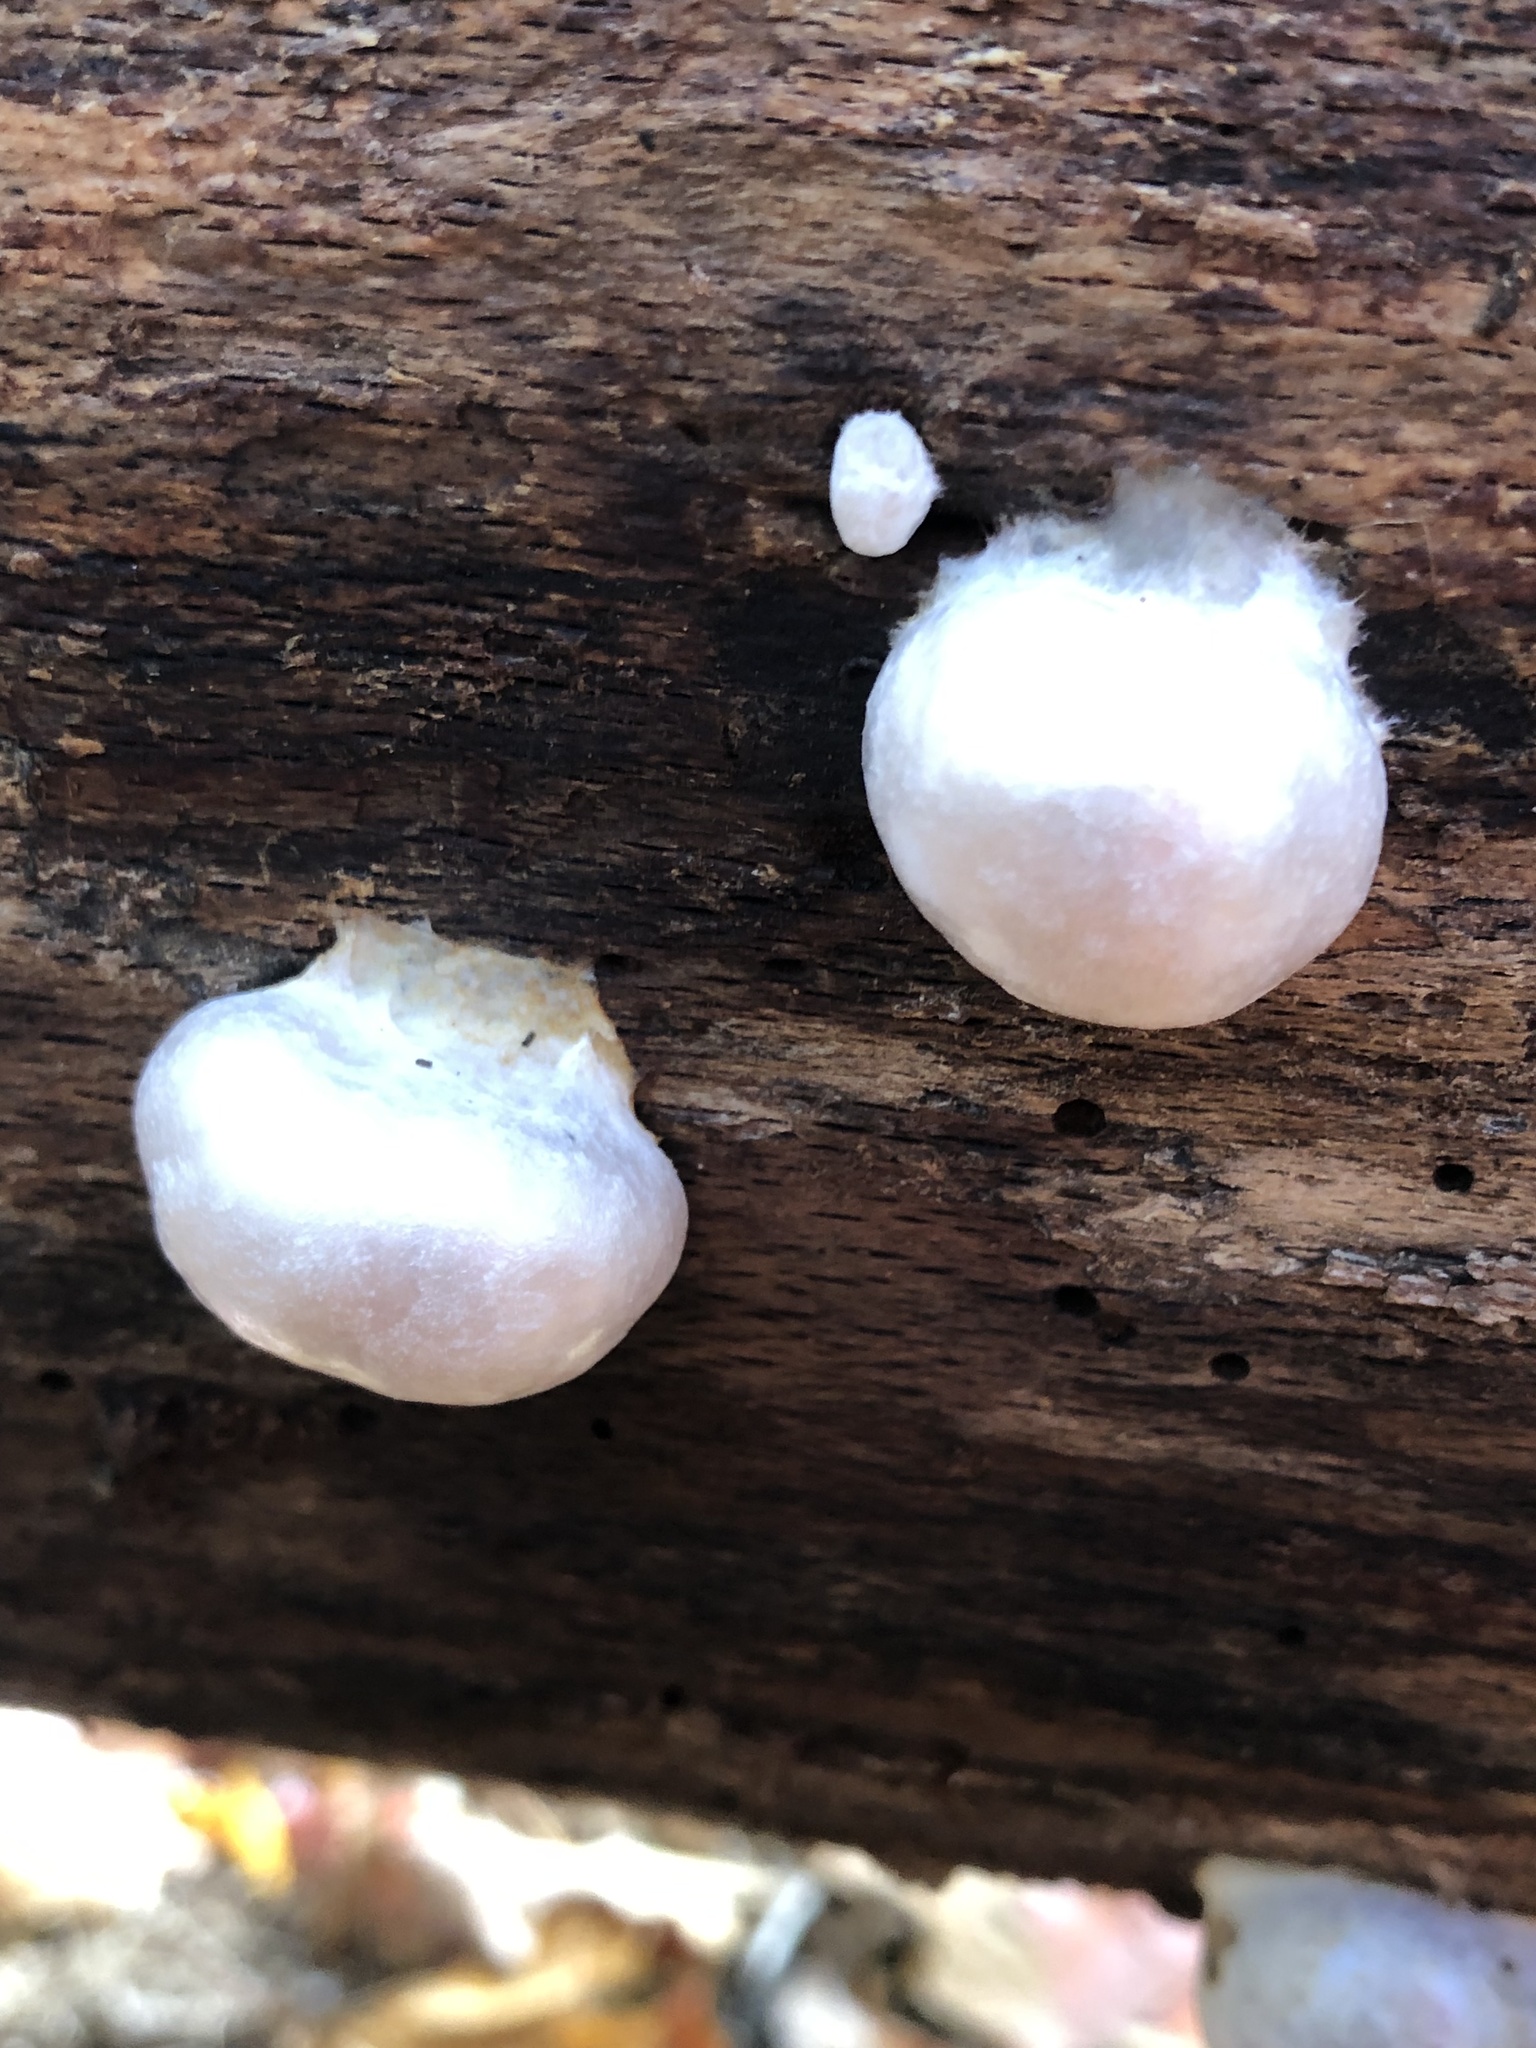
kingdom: Protozoa
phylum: Mycetozoa
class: Myxomycetes
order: Cribrariales
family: Tubiferaceae
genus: Reticularia
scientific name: Reticularia lycoperdon
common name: False puffball
